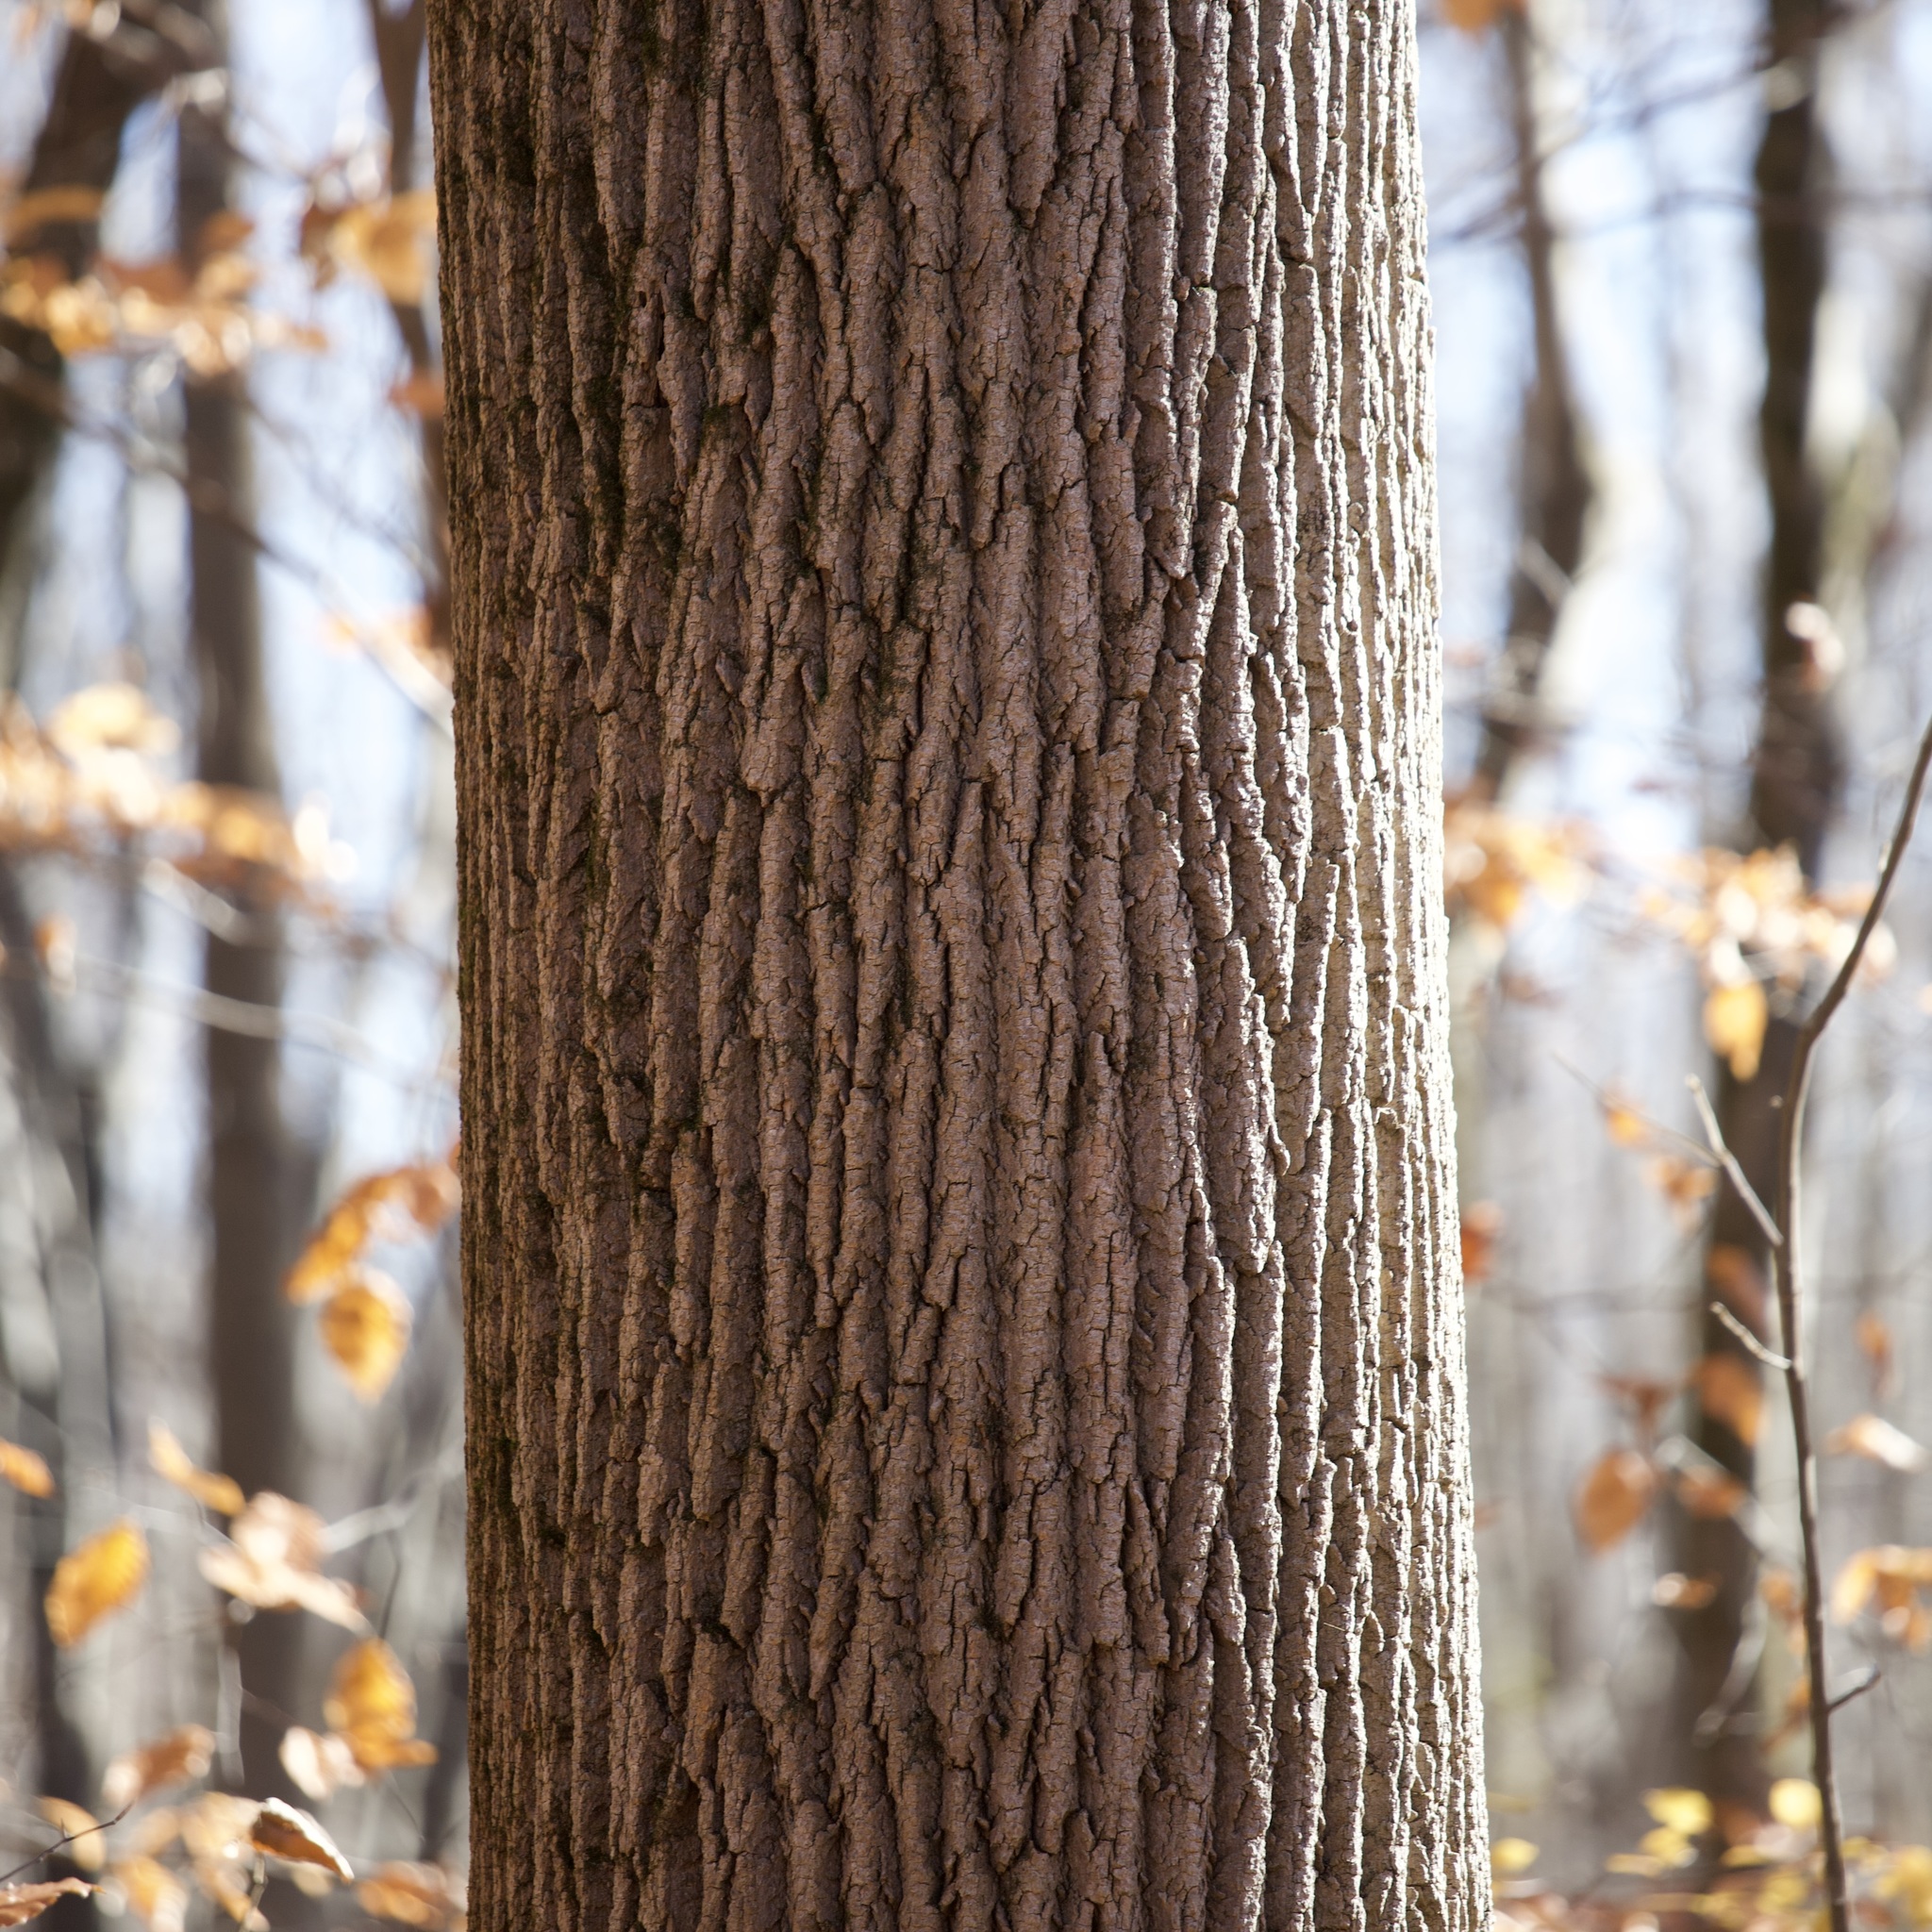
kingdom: Plantae
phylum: Tracheophyta
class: Magnoliopsida
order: Magnoliales
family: Magnoliaceae
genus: Liriodendron
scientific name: Liriodendron tulipifera
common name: Tulip tree
